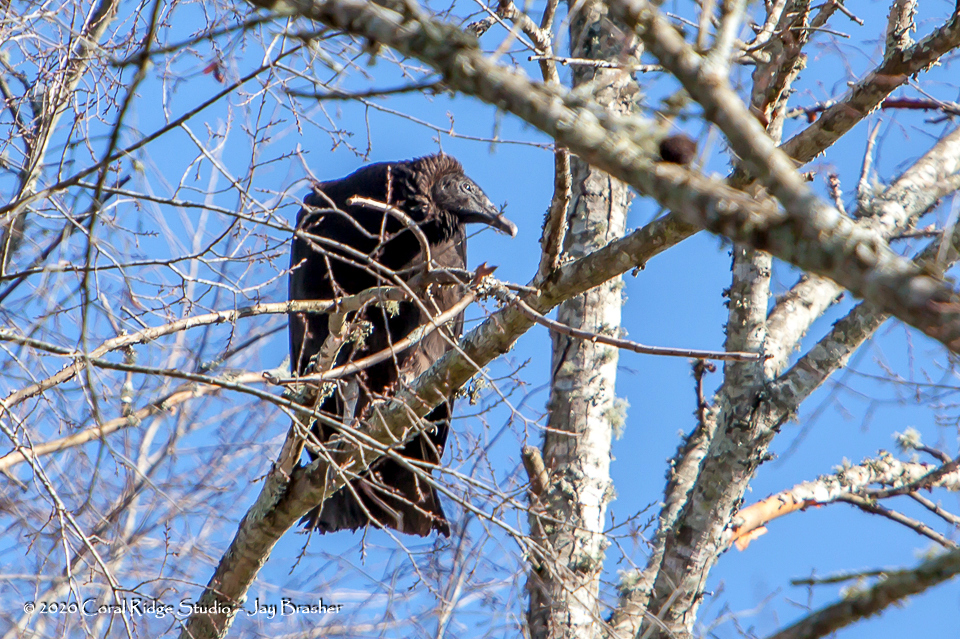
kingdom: Animalia
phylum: Chordata
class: Aves
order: Accipitriformes
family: Cathartidae
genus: Coragyps
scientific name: Coragyps atratus
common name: Black vulture
